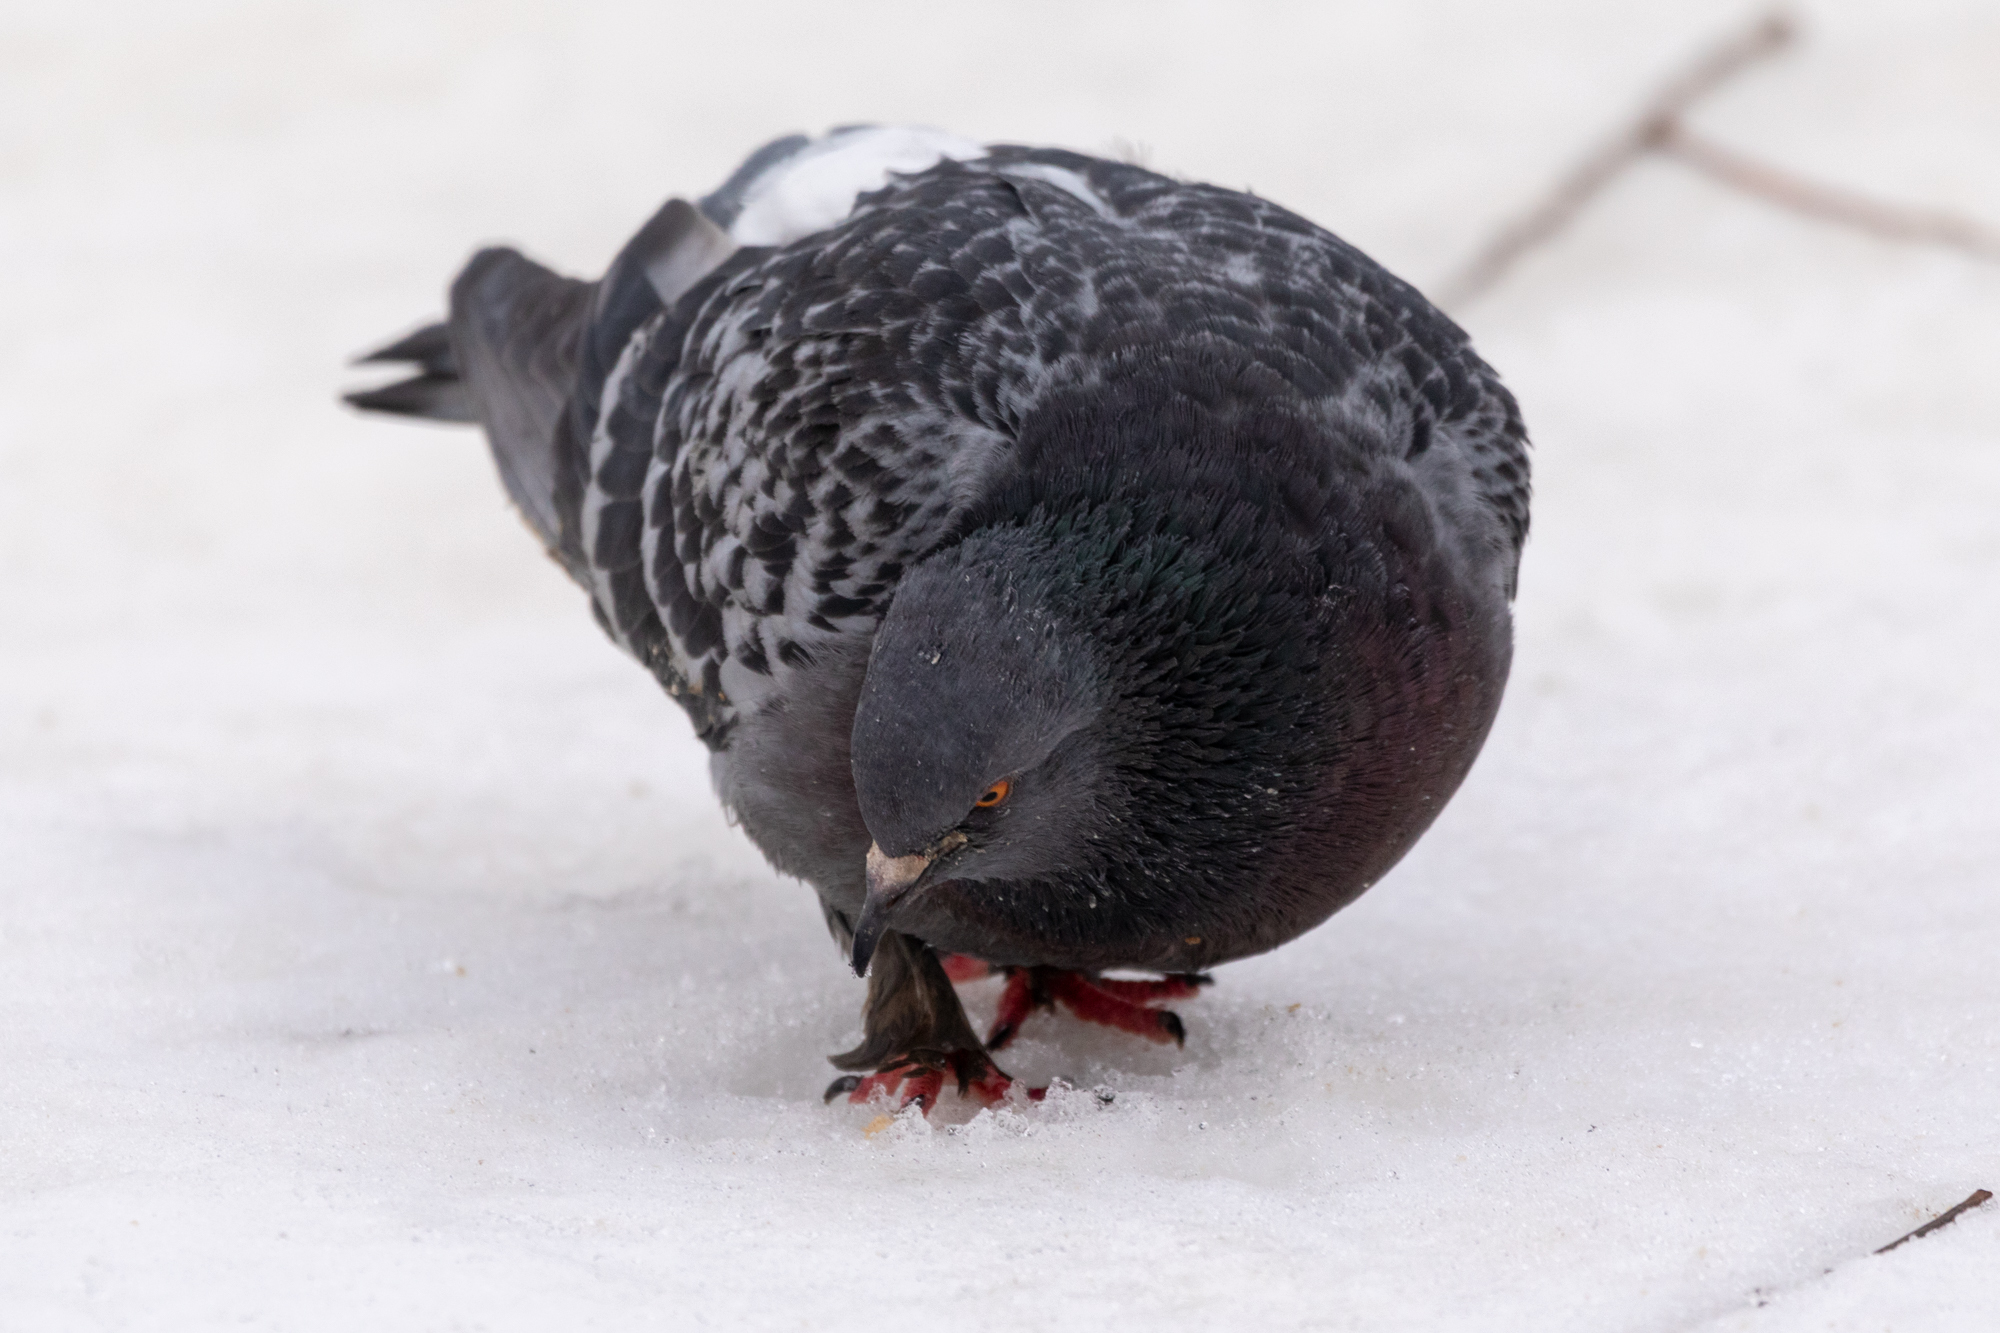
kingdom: Animalia
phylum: Chordata
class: Aves
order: Columbiformes
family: Columbidae
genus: Columba
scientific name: Columba livia
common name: Rock pigeon
